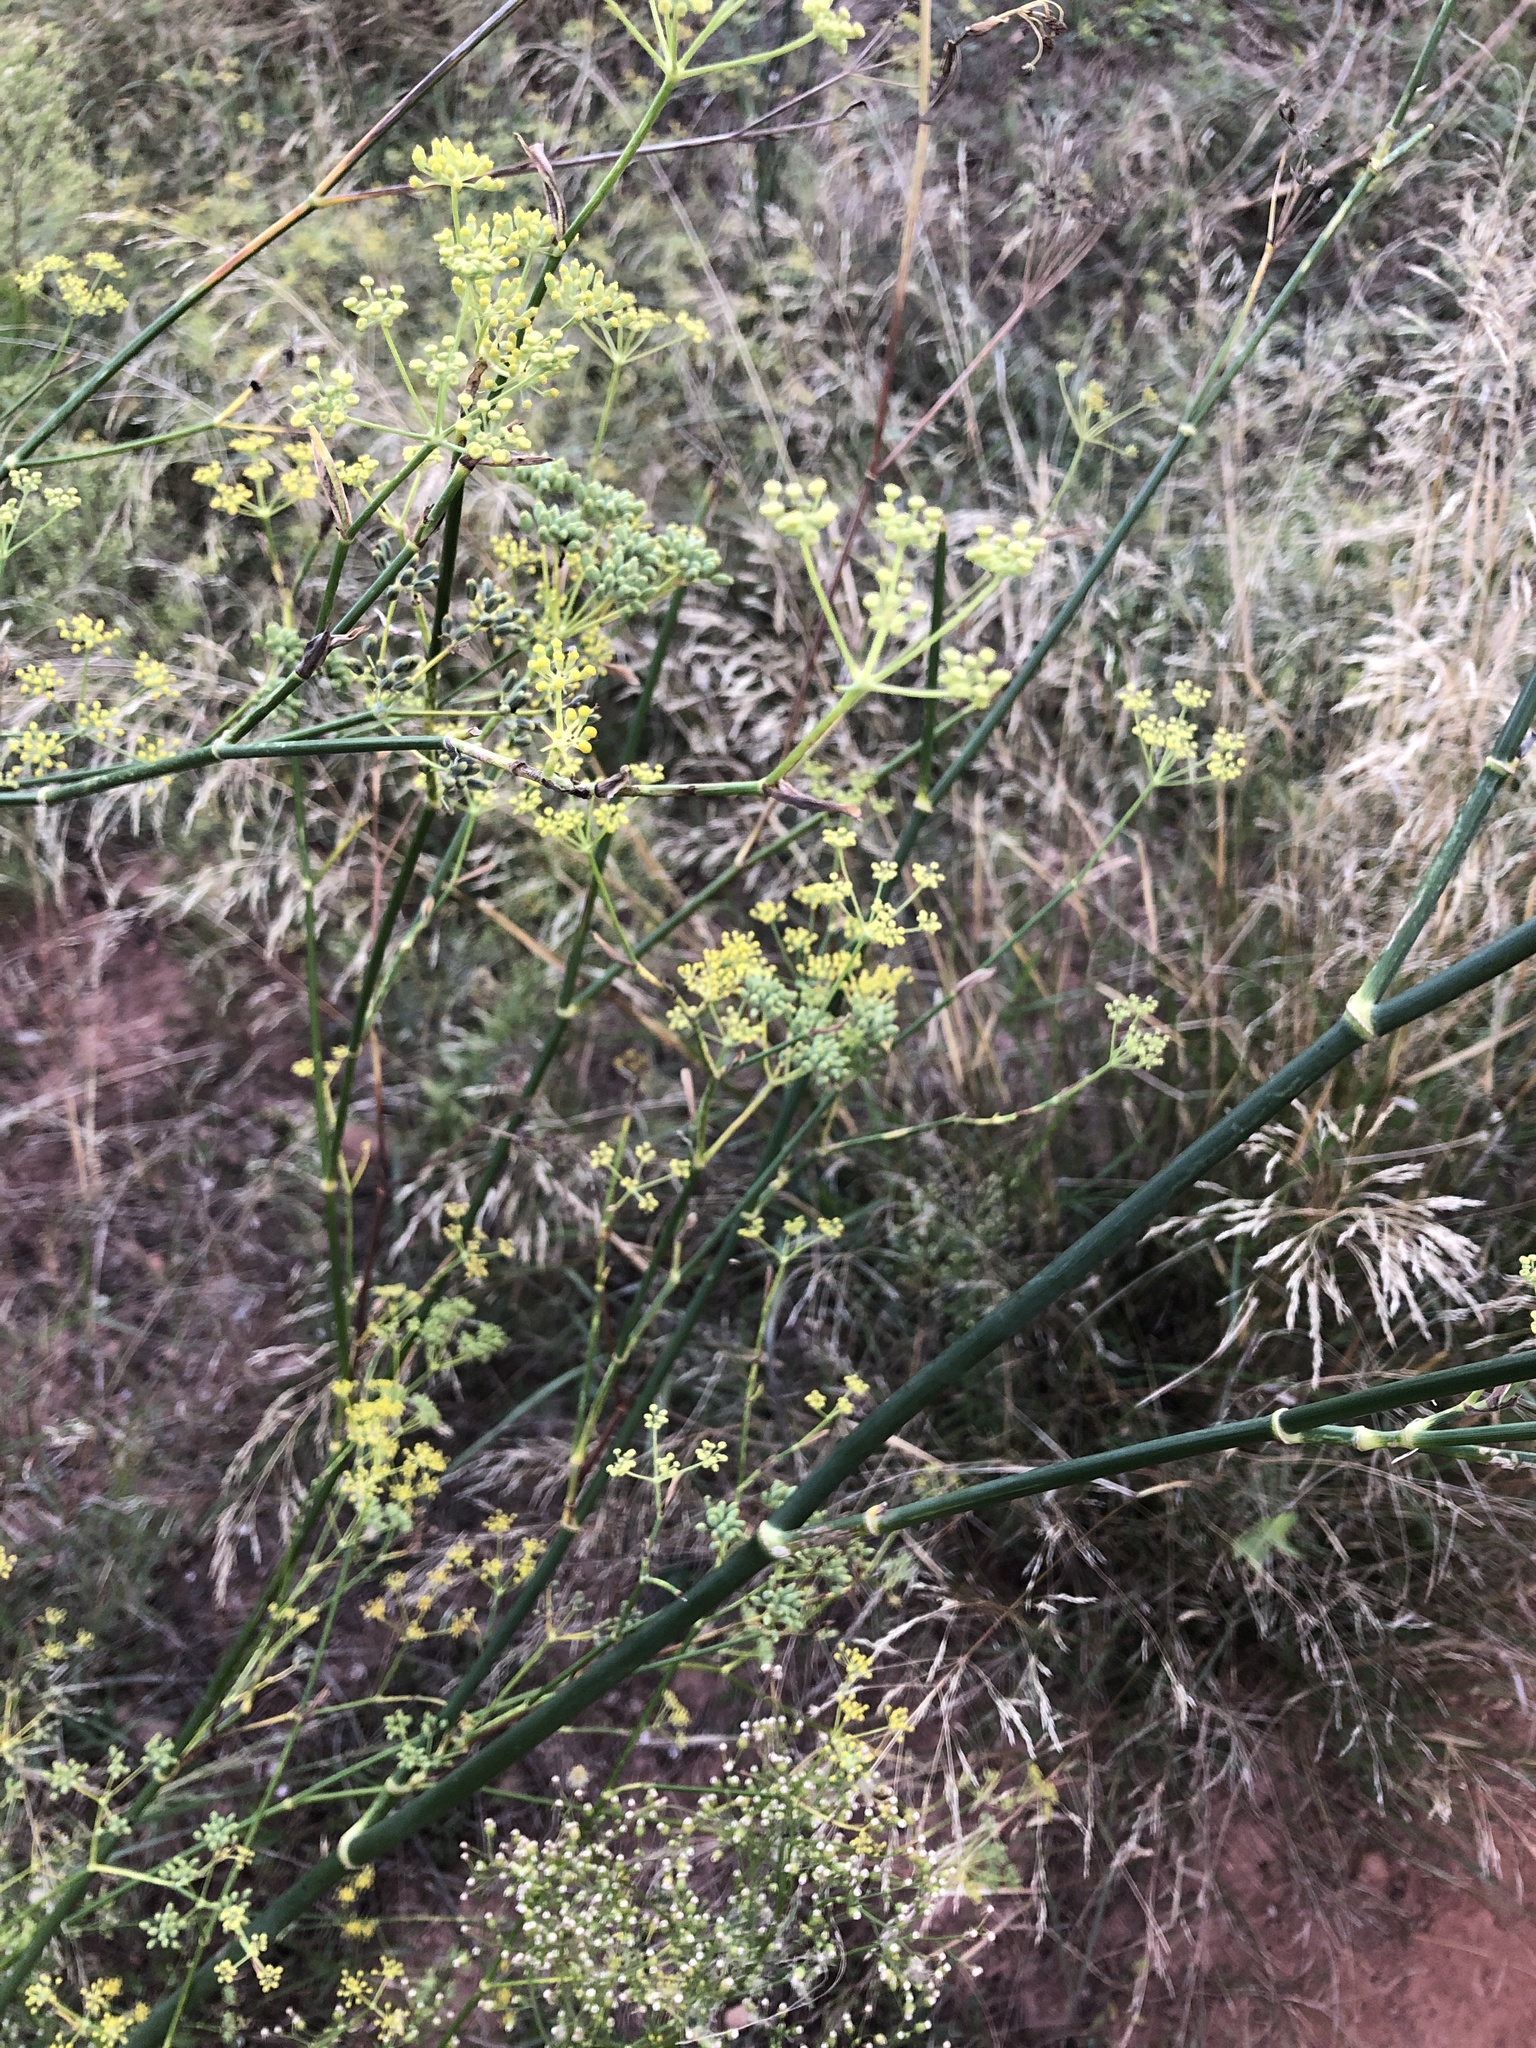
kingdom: Plantae
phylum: Tracheophyta
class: Magnoliopsida
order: Apiales
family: Apiaceae
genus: Foeniculum
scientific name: Foeniculum vulgare
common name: Fennel
